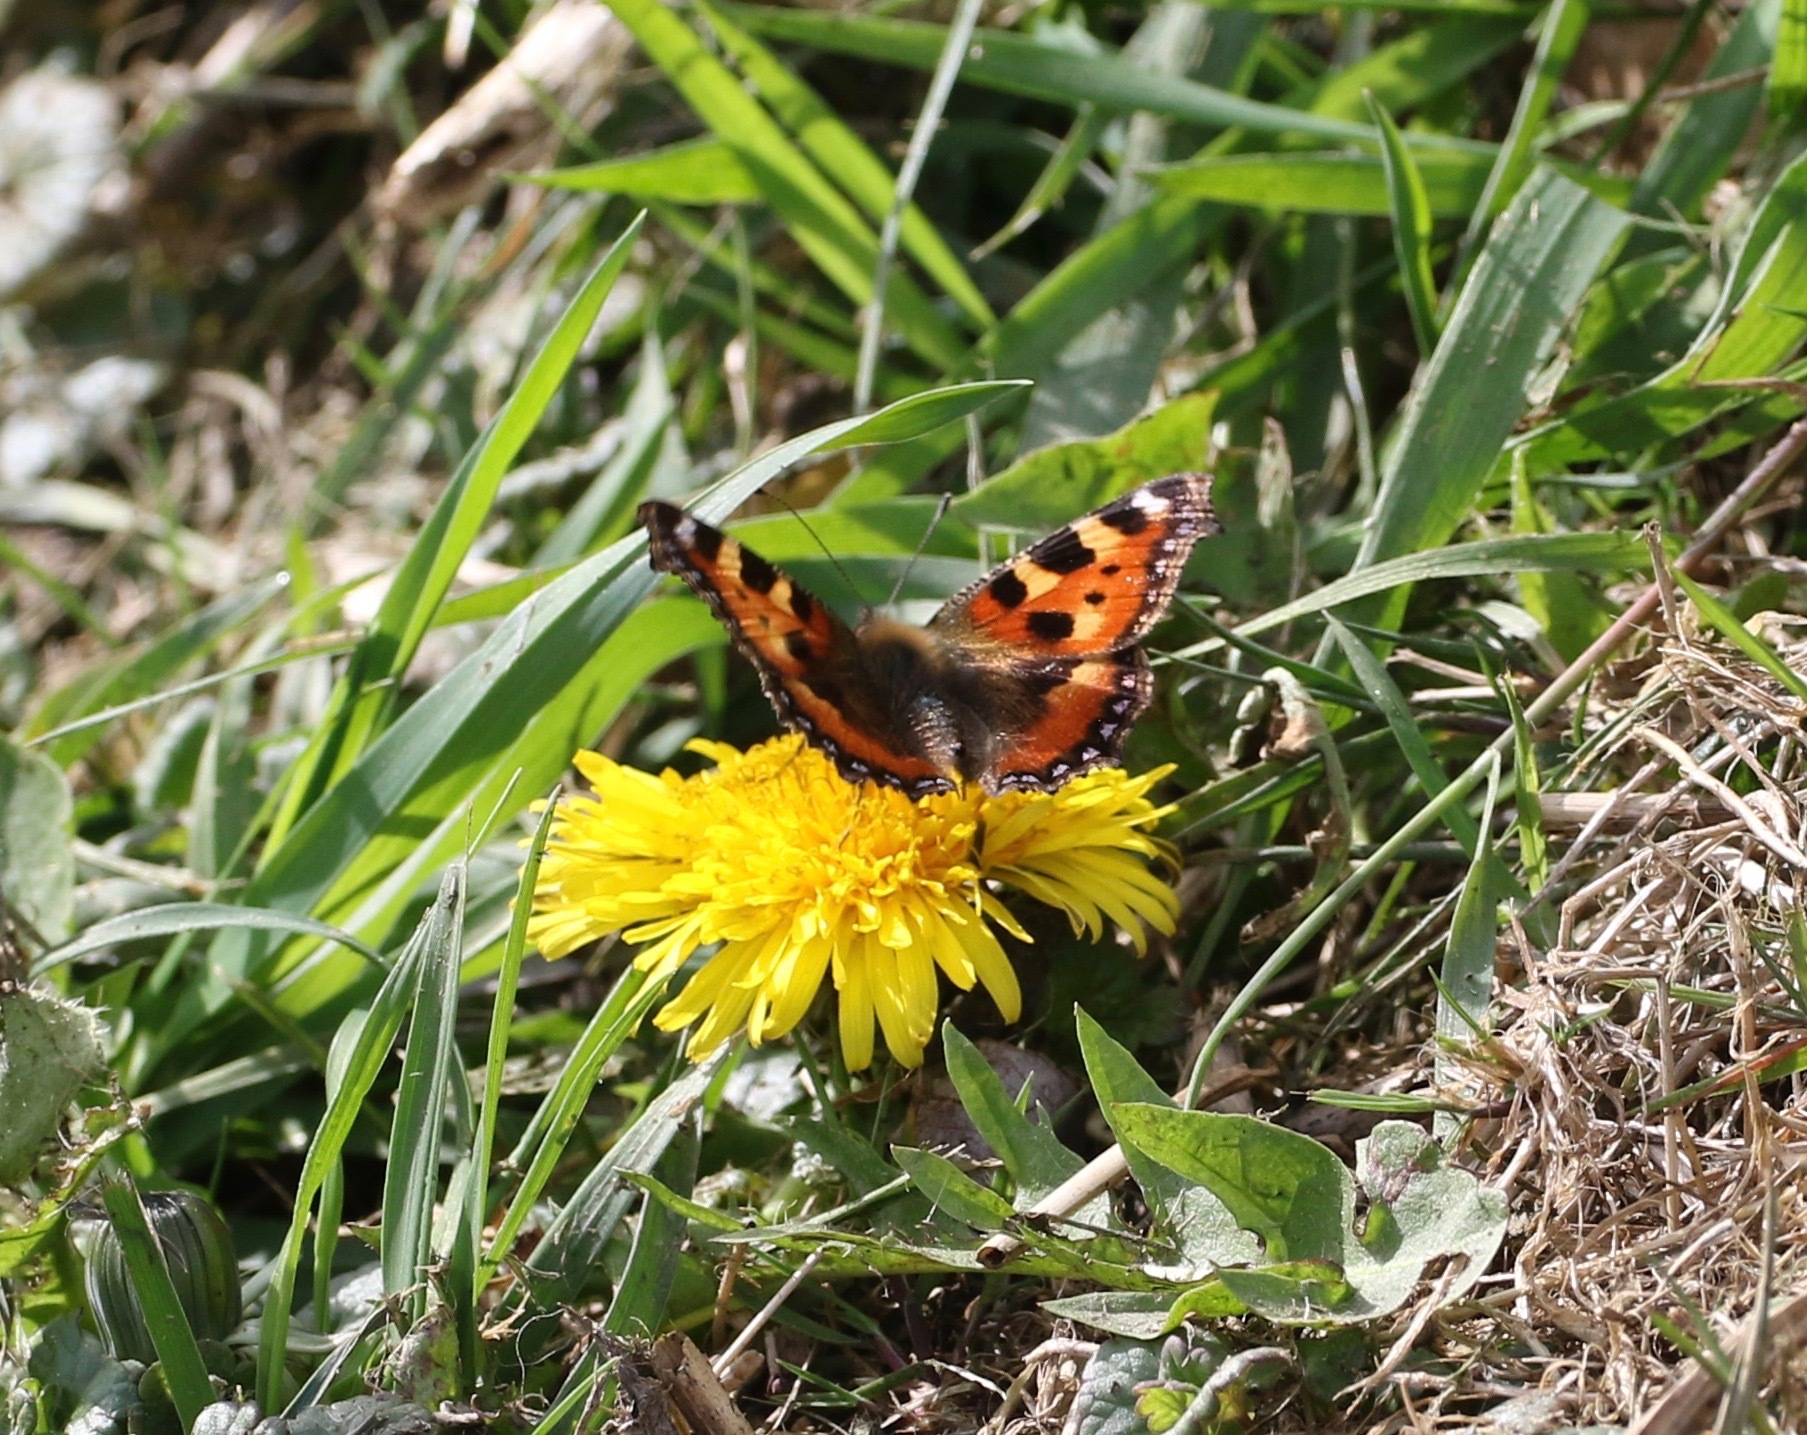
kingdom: Animalia
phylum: Arthropoda
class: Insecta
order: Lepidoptera
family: Nymphalidae
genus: Aglais
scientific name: Aglais urticae
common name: Small tortoiseshell
